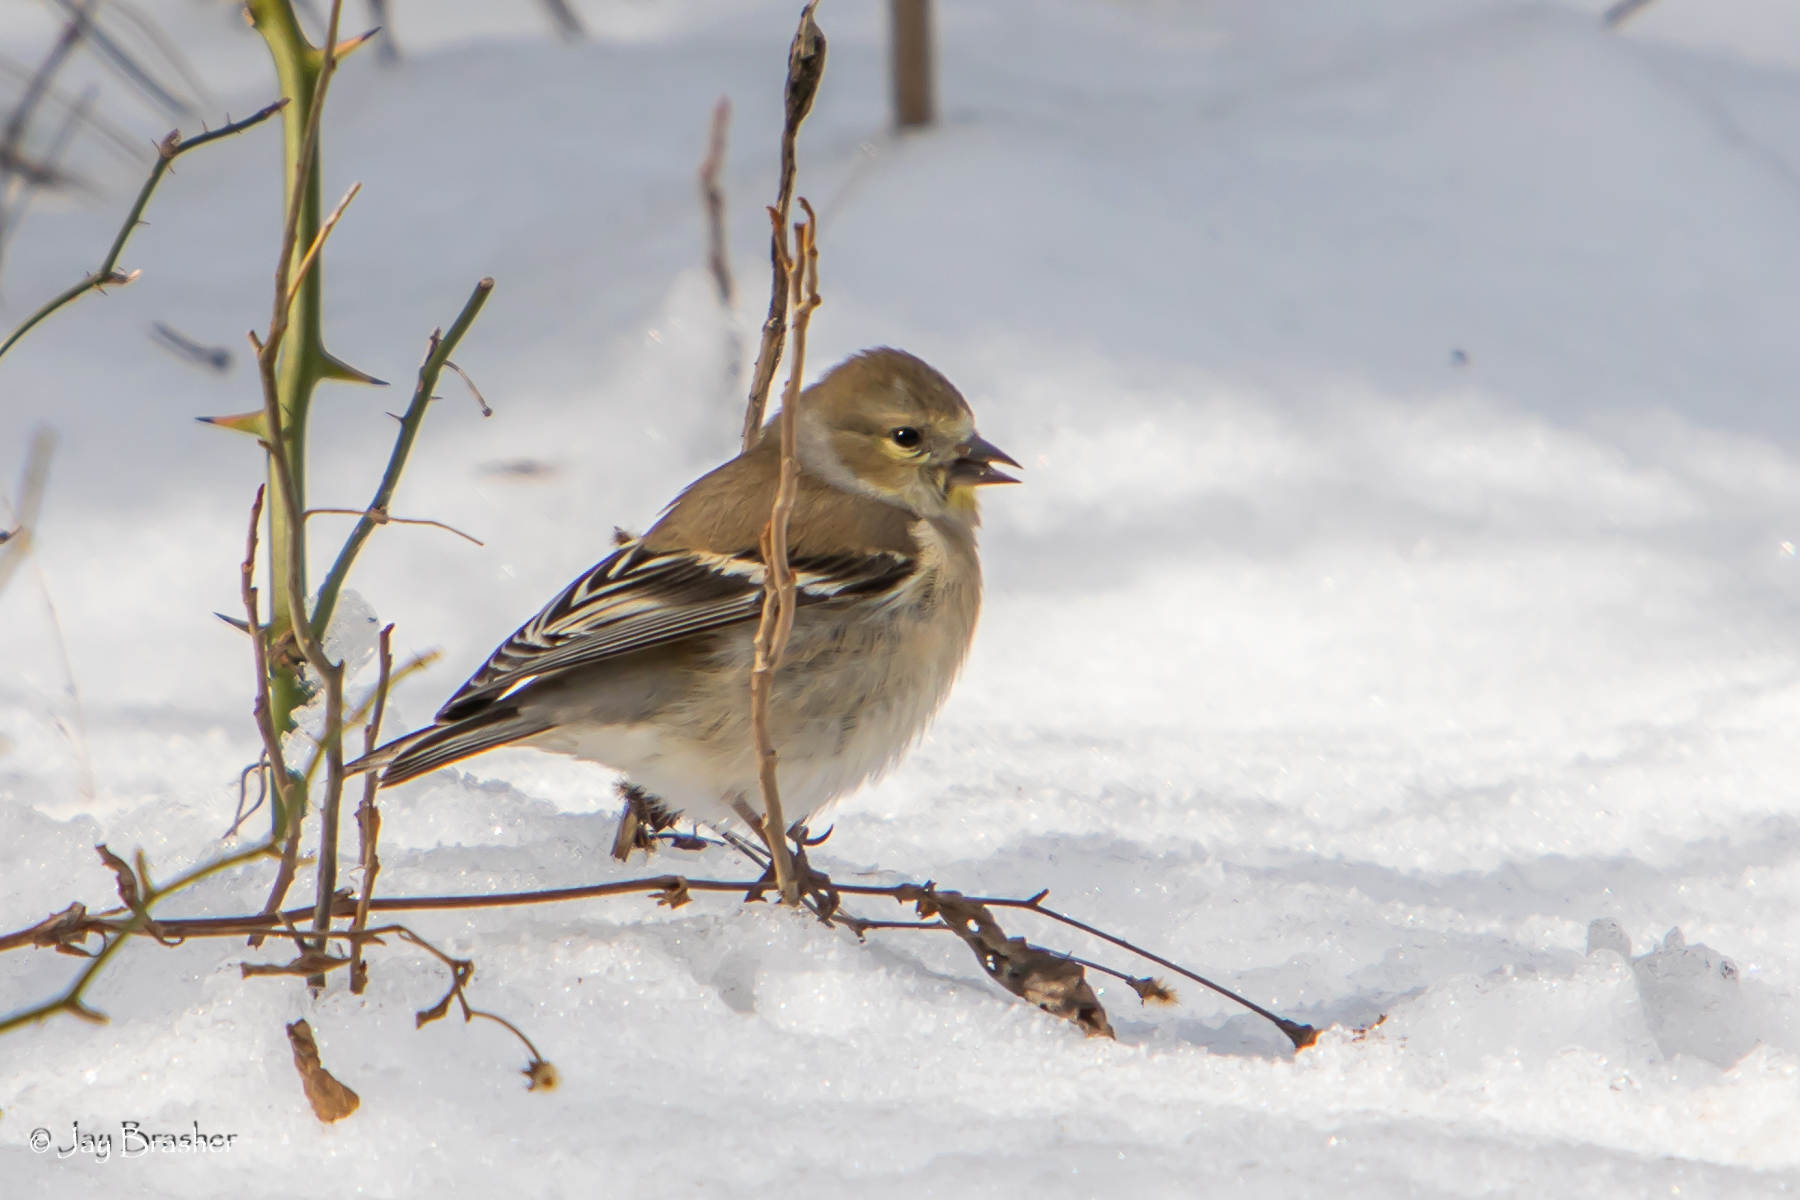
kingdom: Animalia
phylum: Chordata
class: Aves
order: Passeriformes
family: Fringillidae
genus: Spinus
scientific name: Spinus tristis
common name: American goldfinch
